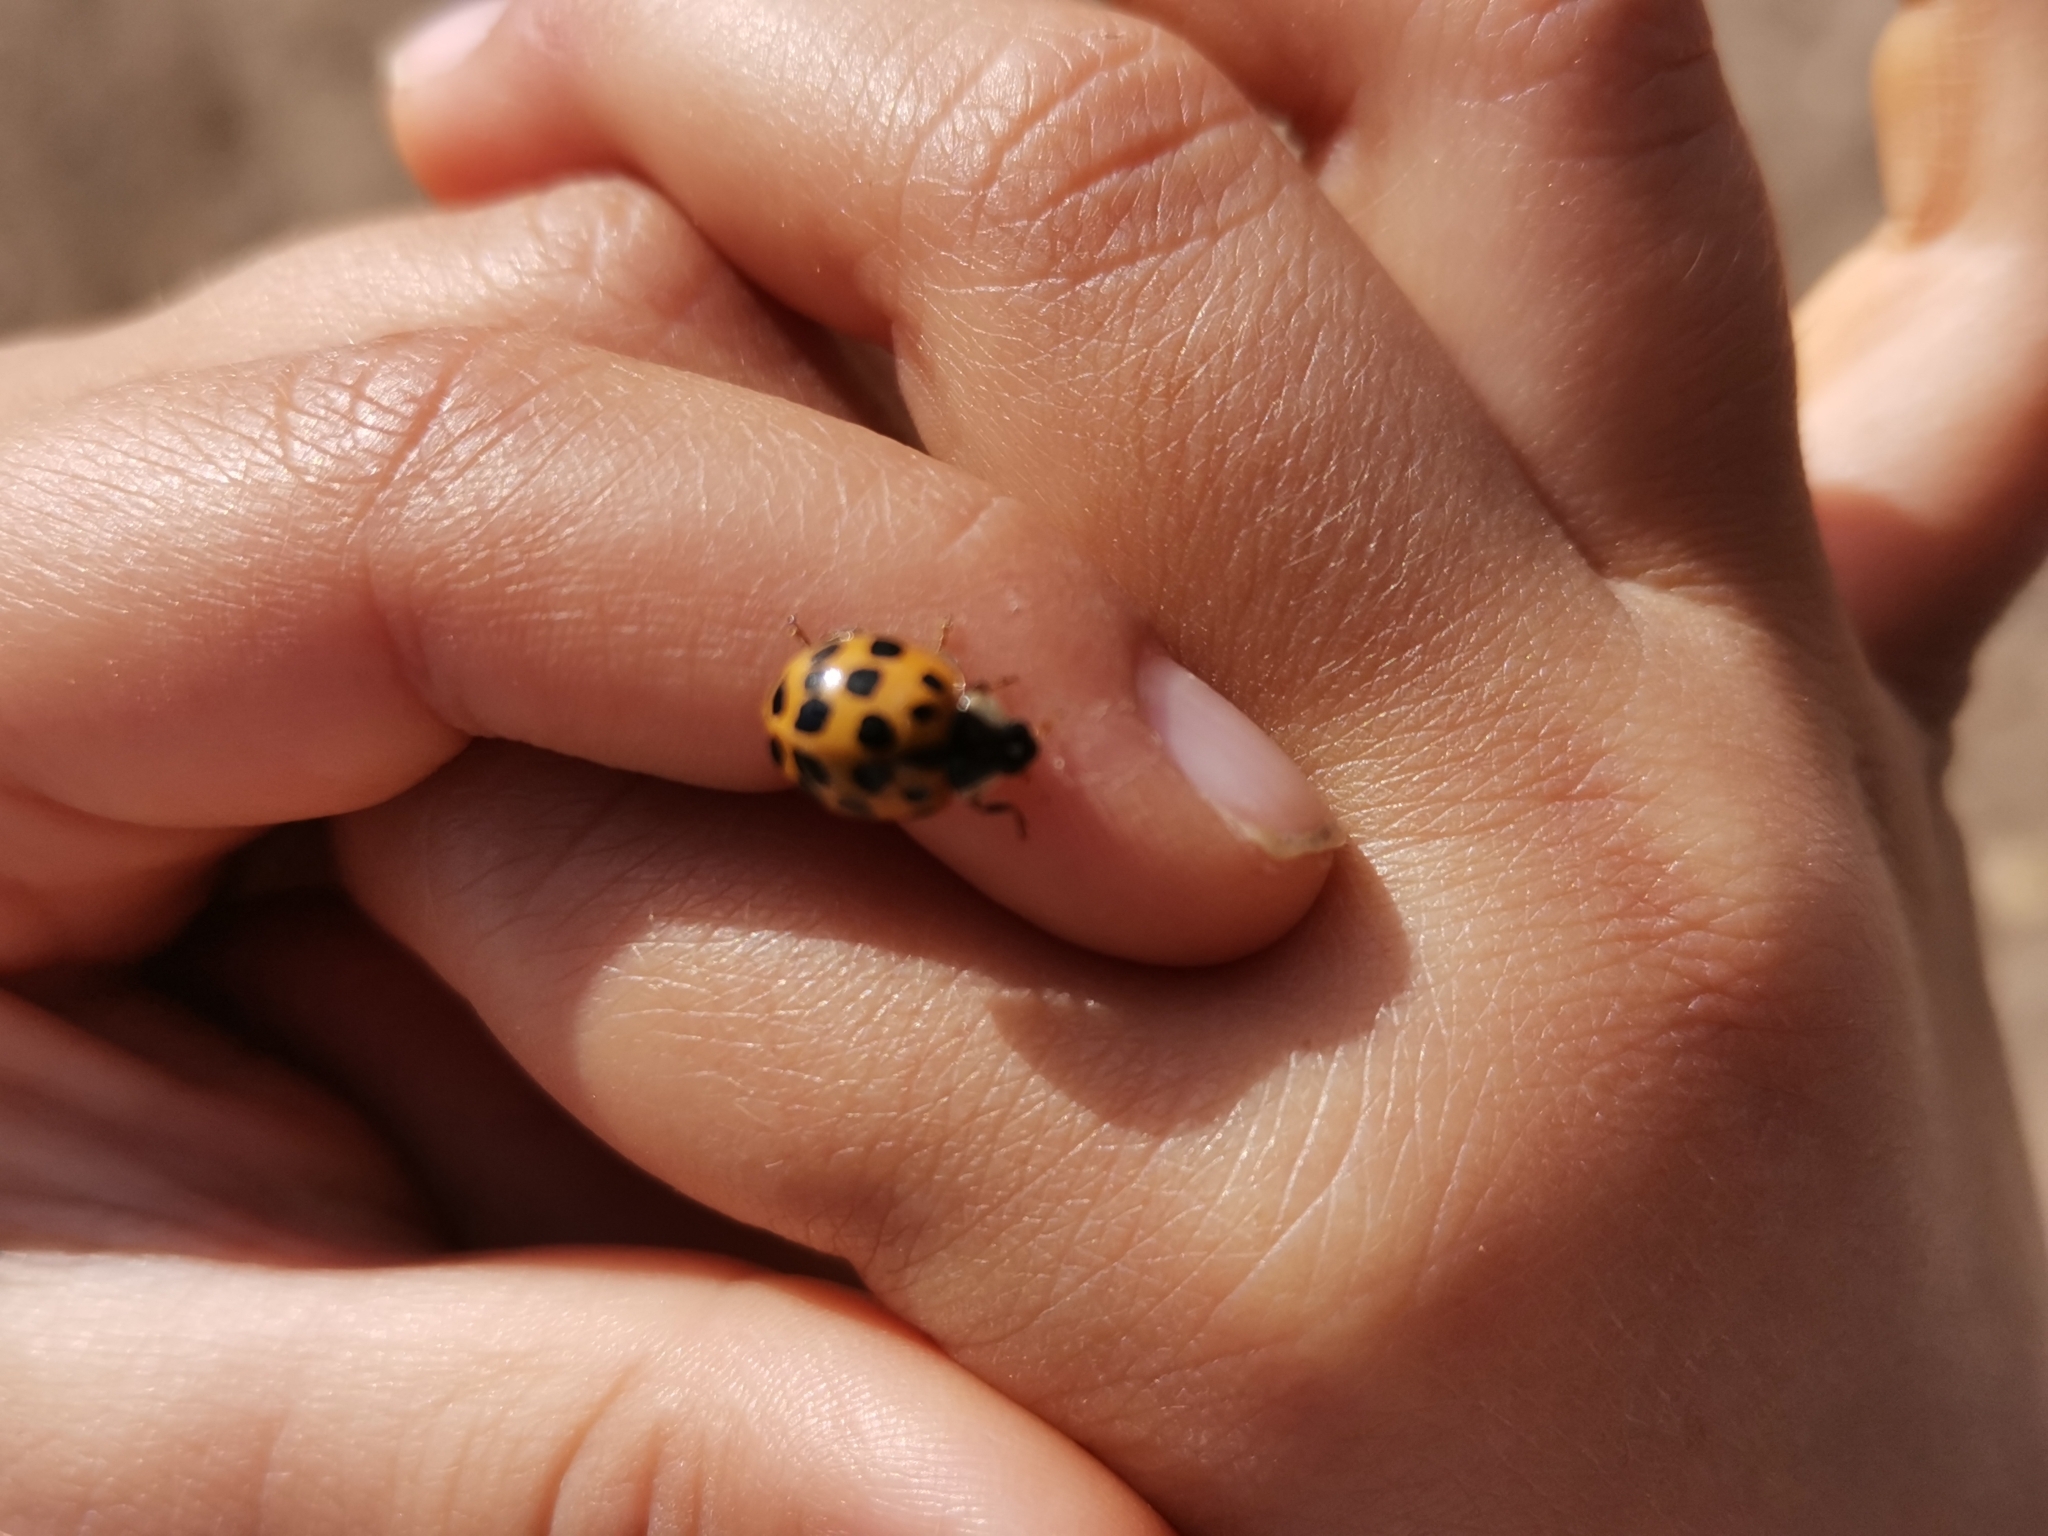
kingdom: Animalia
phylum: Arthropoda
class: Insecta
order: Coleoptera
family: Coccinellidae
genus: Harmonia
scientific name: Harmonia axyridis
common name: Harlequin ladybird
